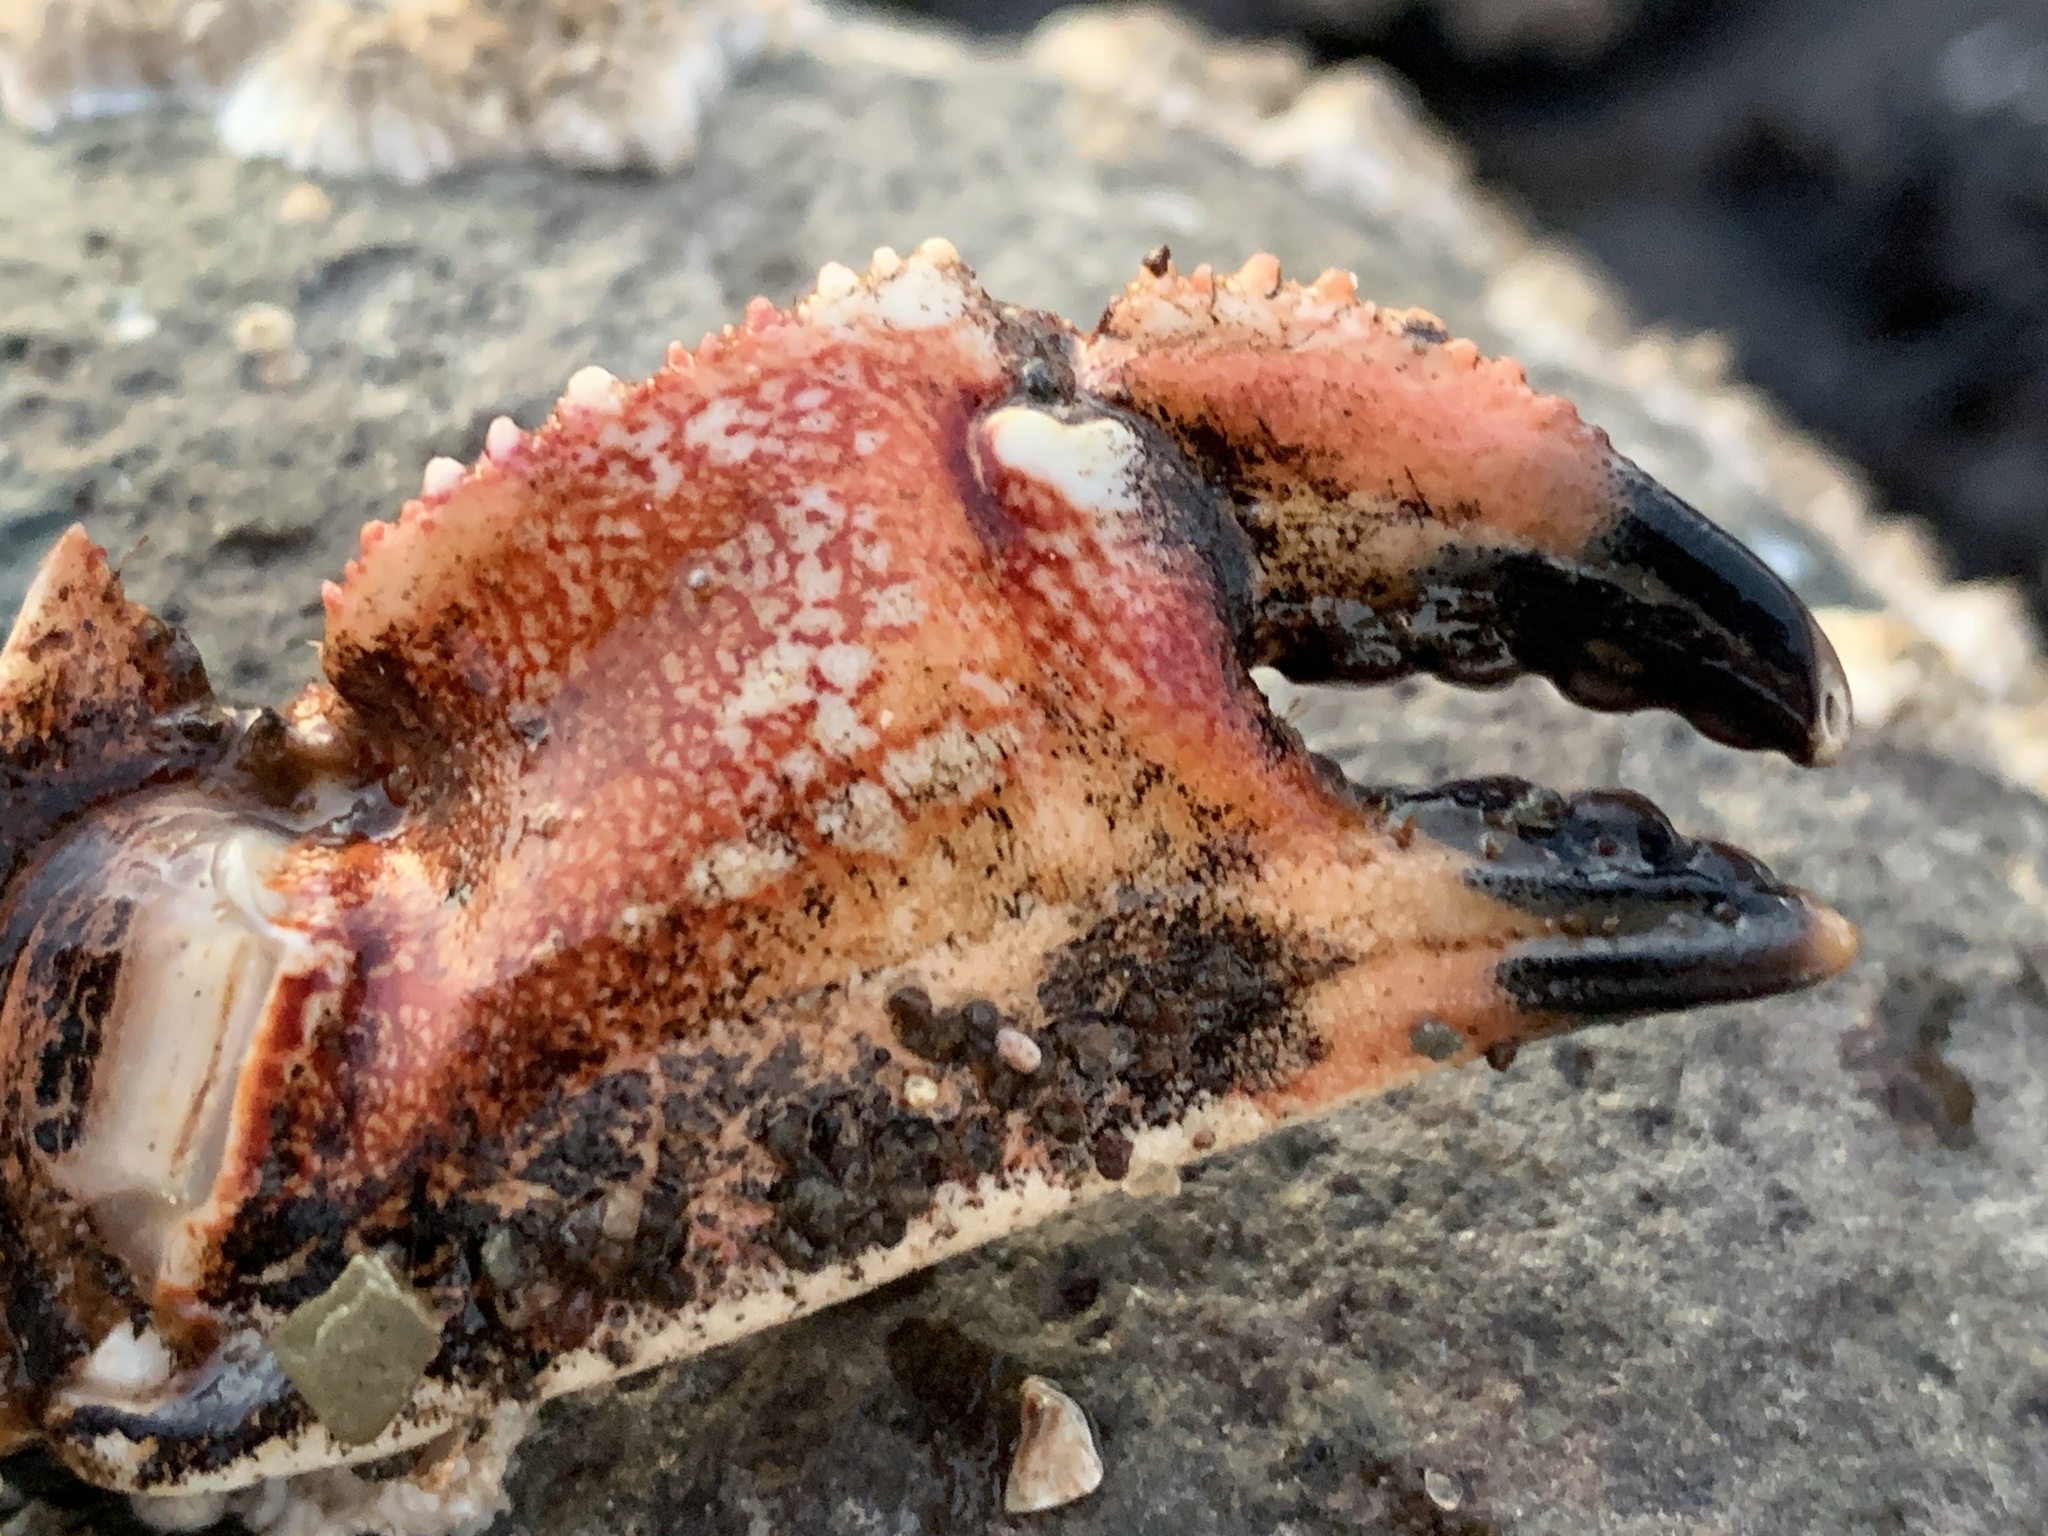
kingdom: Animalia
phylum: Arthropoda
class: Malacostraca
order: Decapoda
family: Cancridae
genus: Cancer
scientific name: Cancer borealis
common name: Jonah crab
